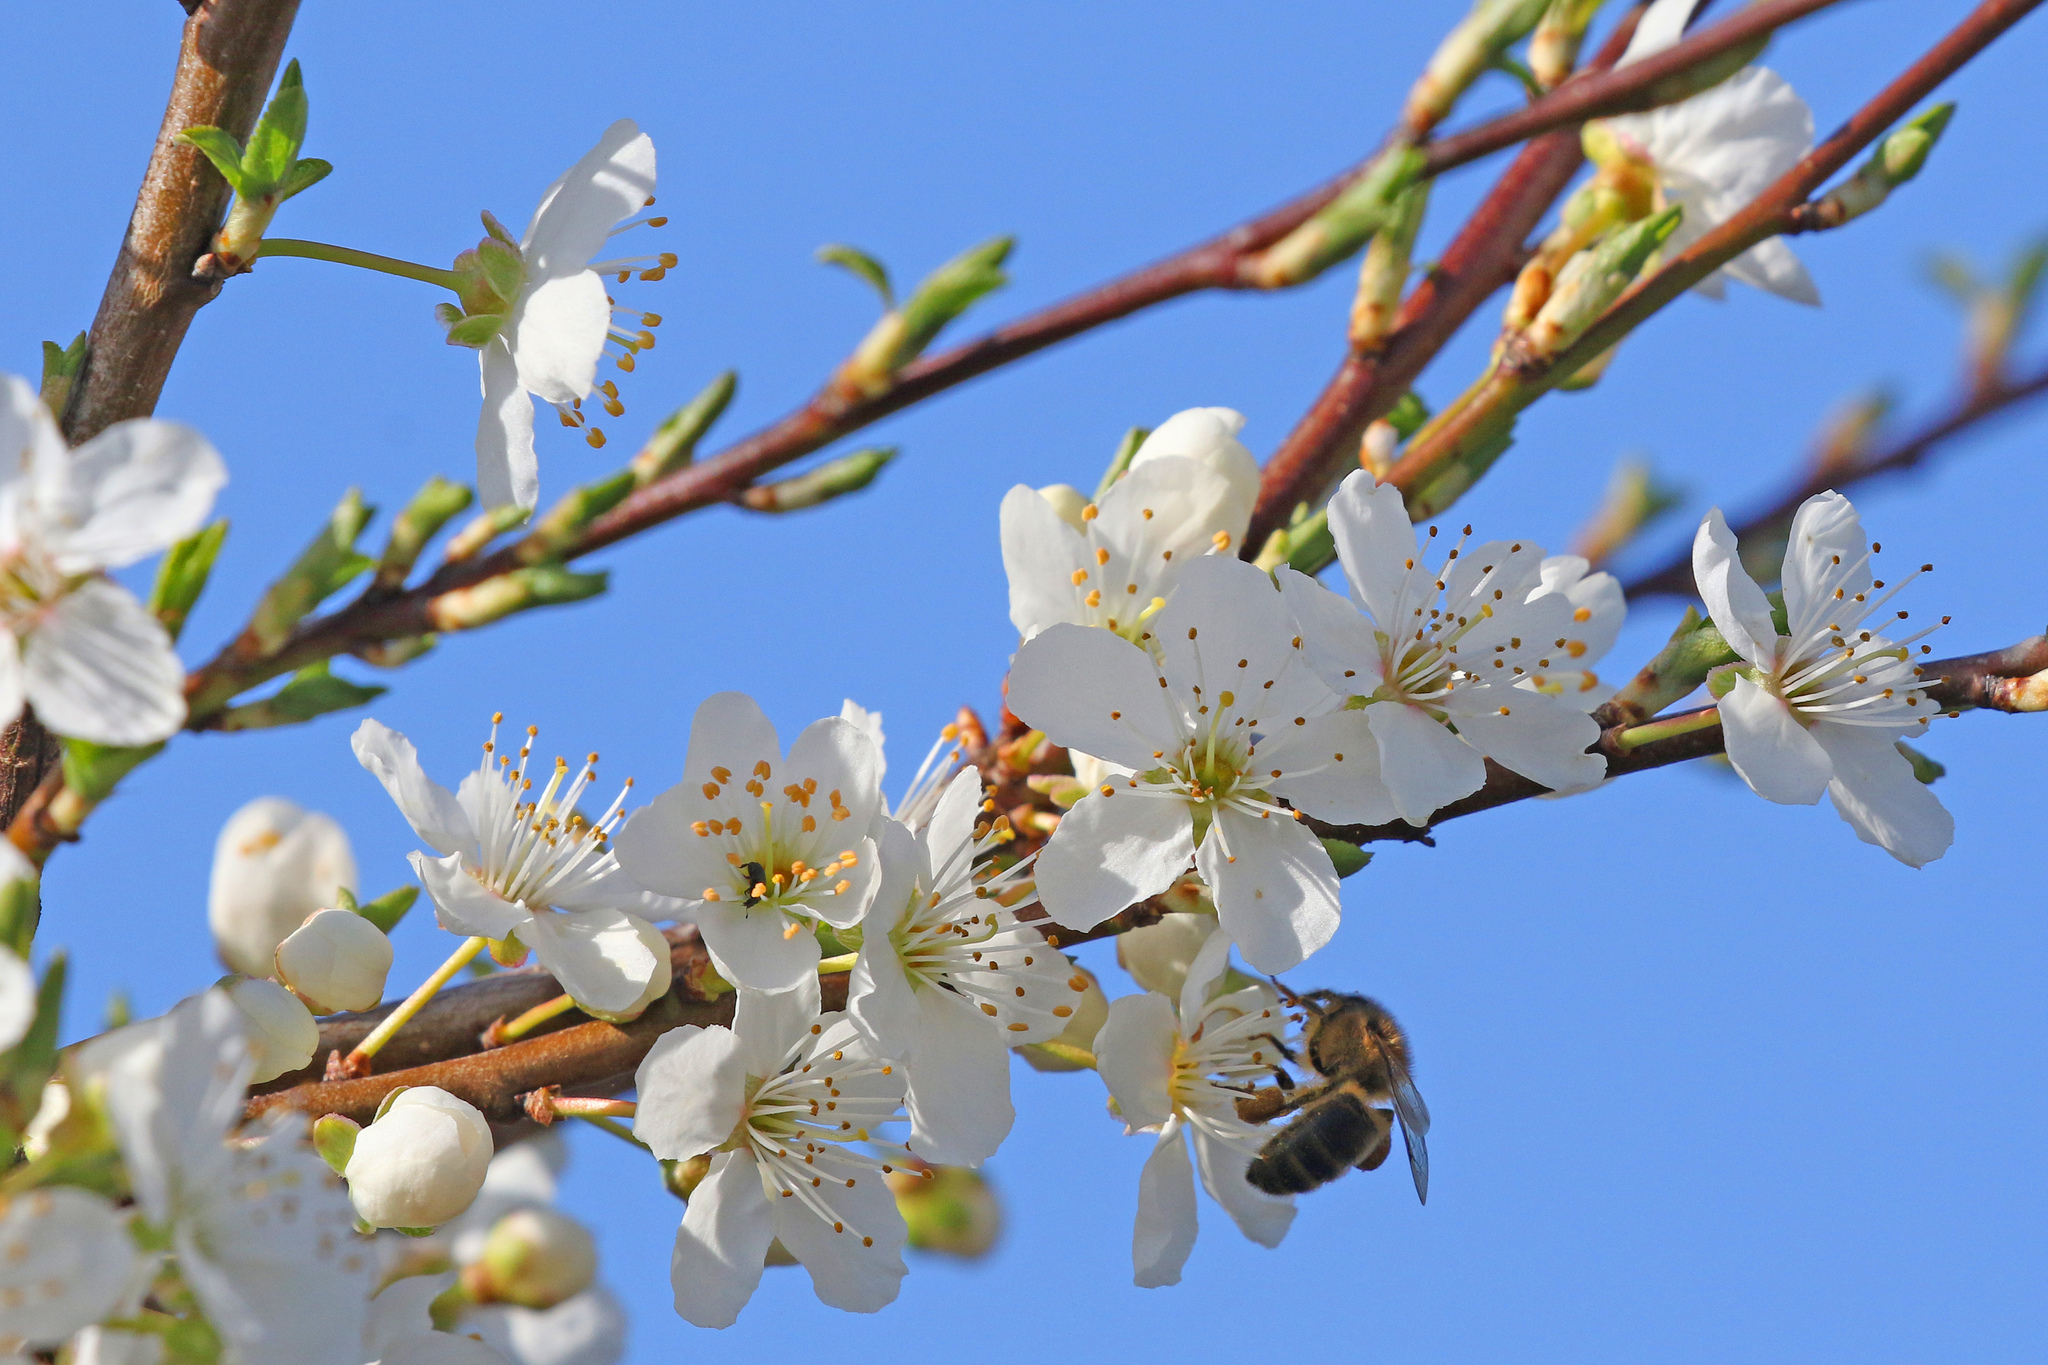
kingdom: Animalia
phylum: Arthropoda
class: Insecta
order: Hymenoptera
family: Apidae
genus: Apis
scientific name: Apis mellifera
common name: Honey bee
